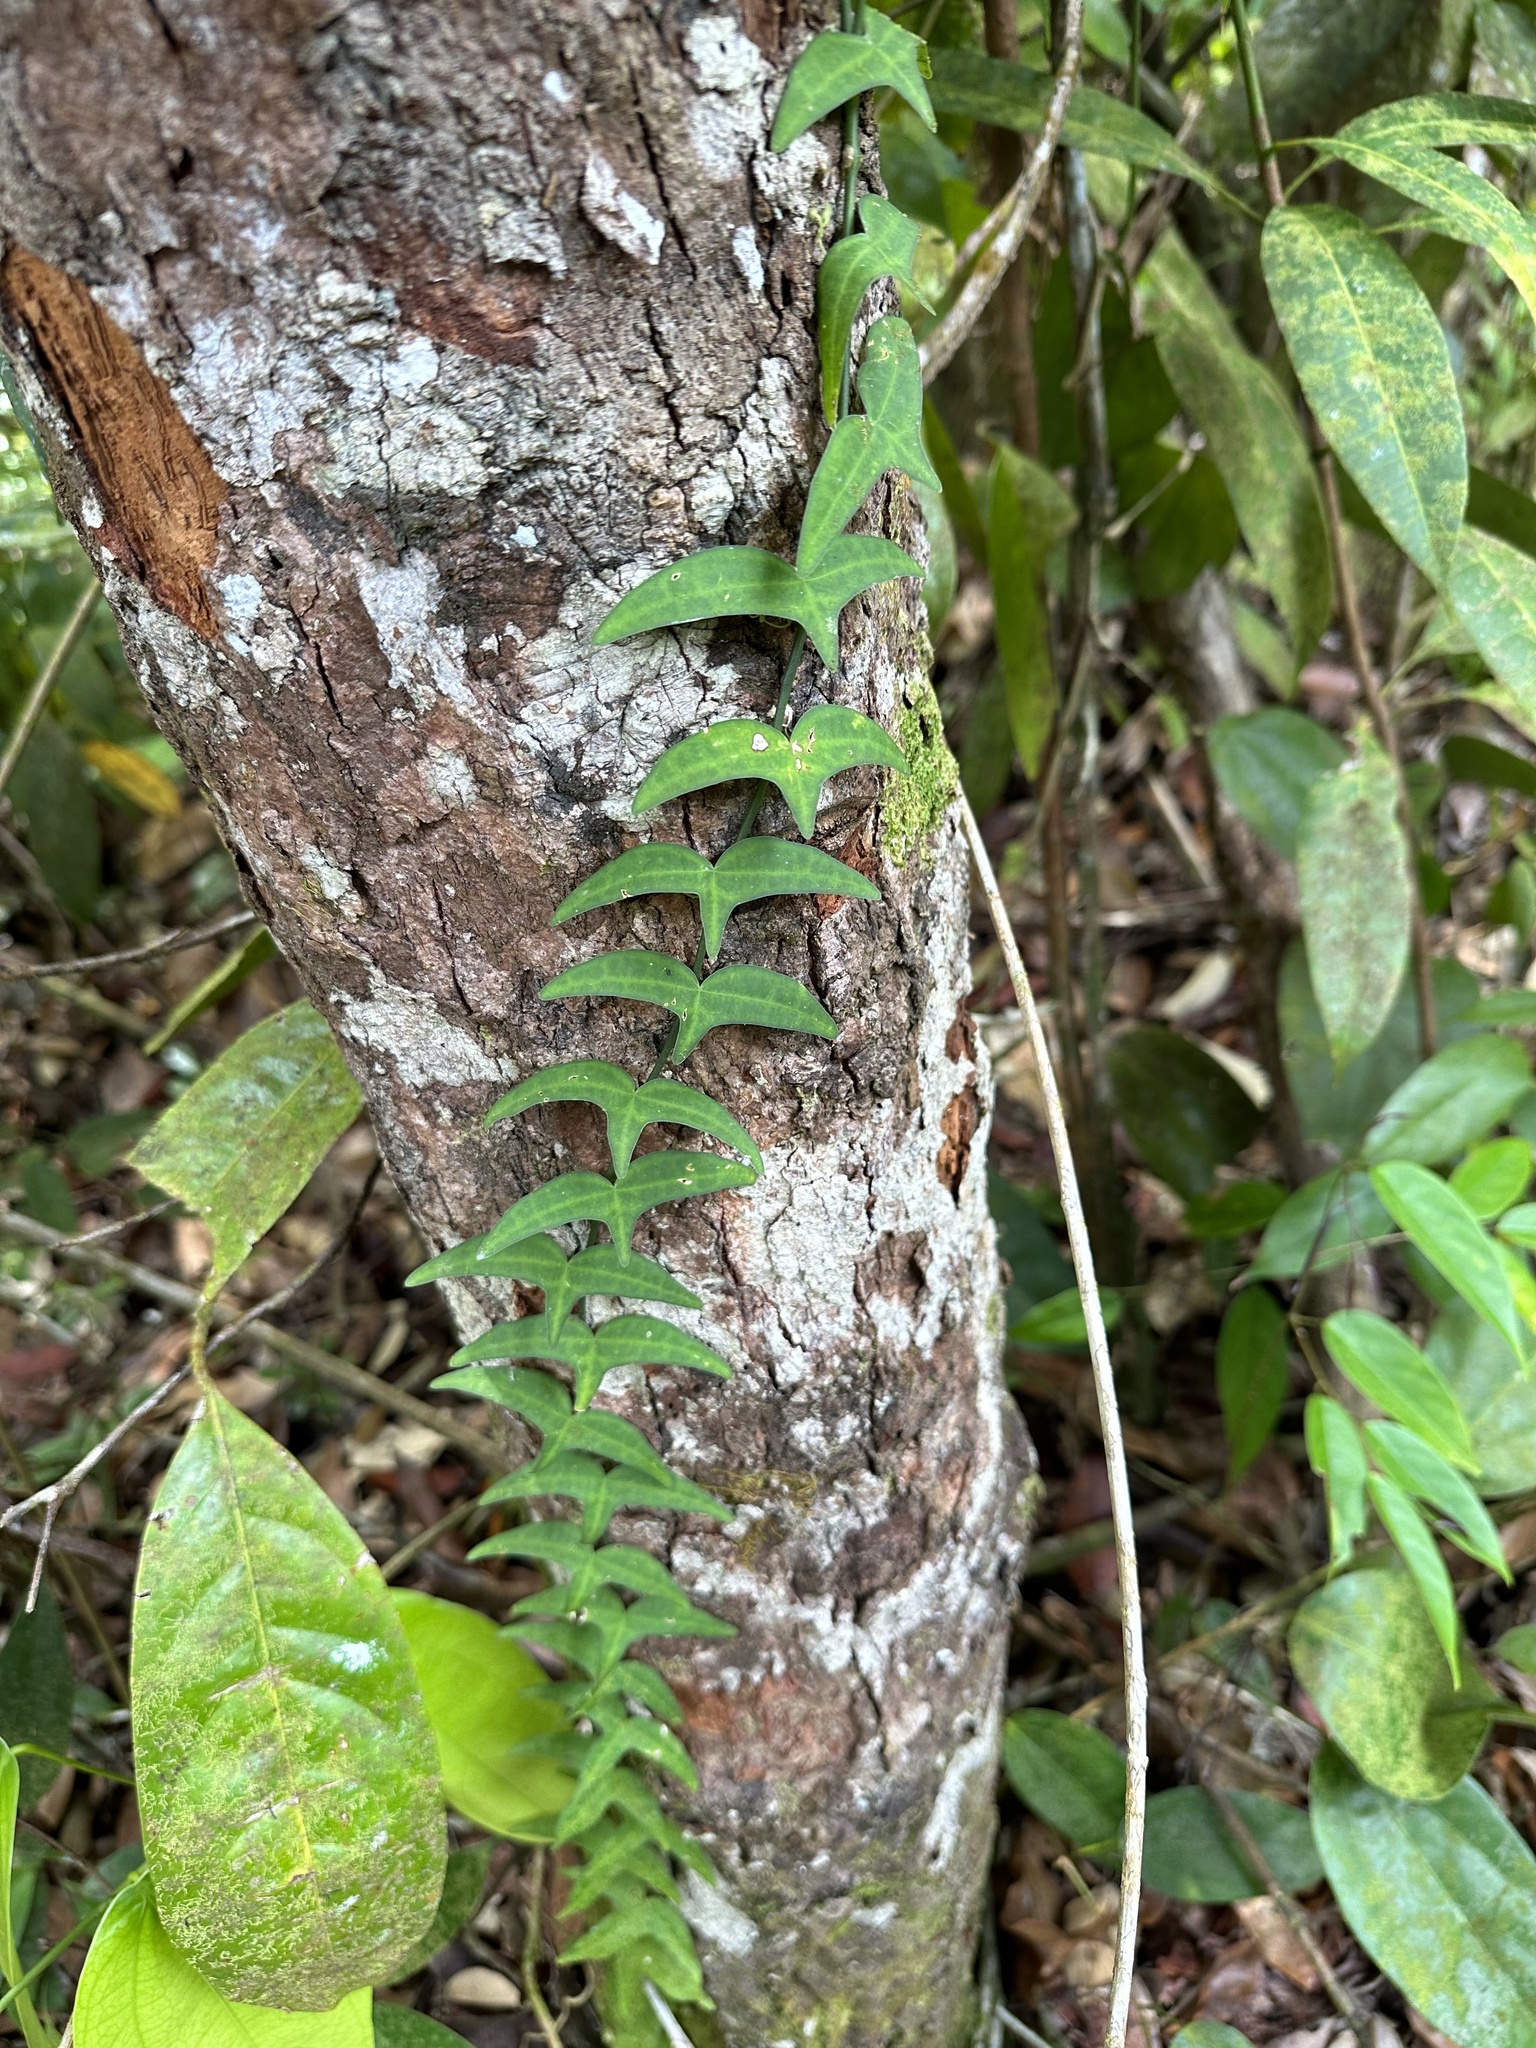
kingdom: Plantae
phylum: Tracheophyta
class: Magnoliopsida
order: Malpighiales
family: Passifloraceae
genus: Adenia
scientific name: Adenia cordifolia
